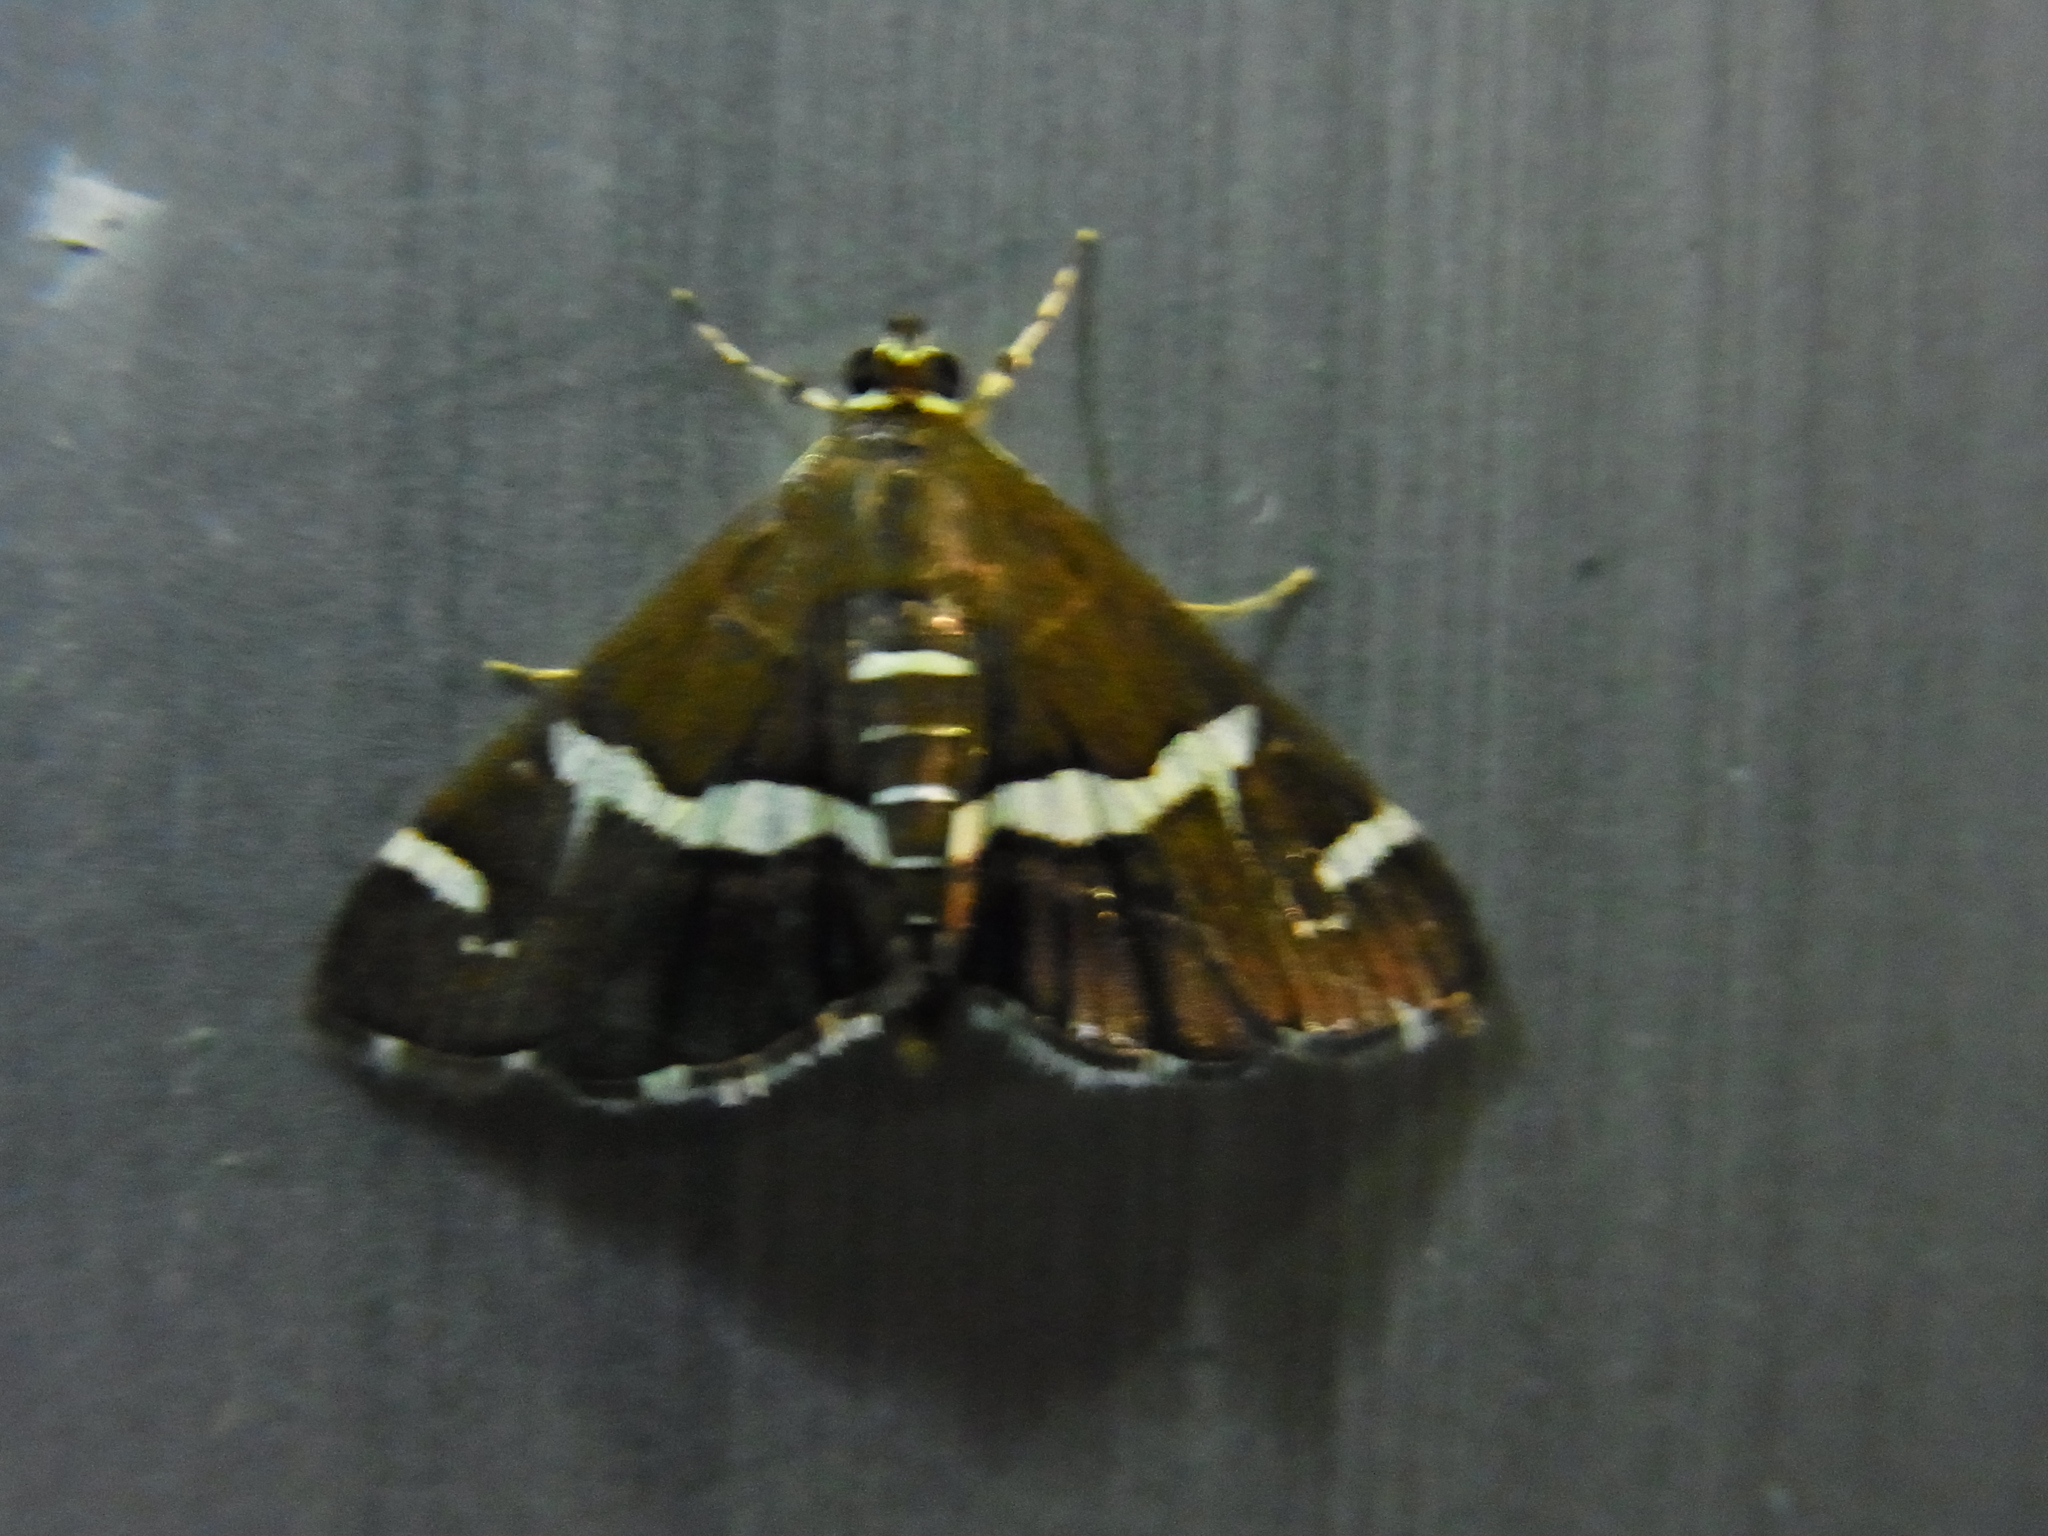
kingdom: Animalia
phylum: Arthropoda
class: Insecta
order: Lepidoptera
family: Crambidae
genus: Spoladea
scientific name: Spoladea recurvalis
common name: Beet webworm moth
